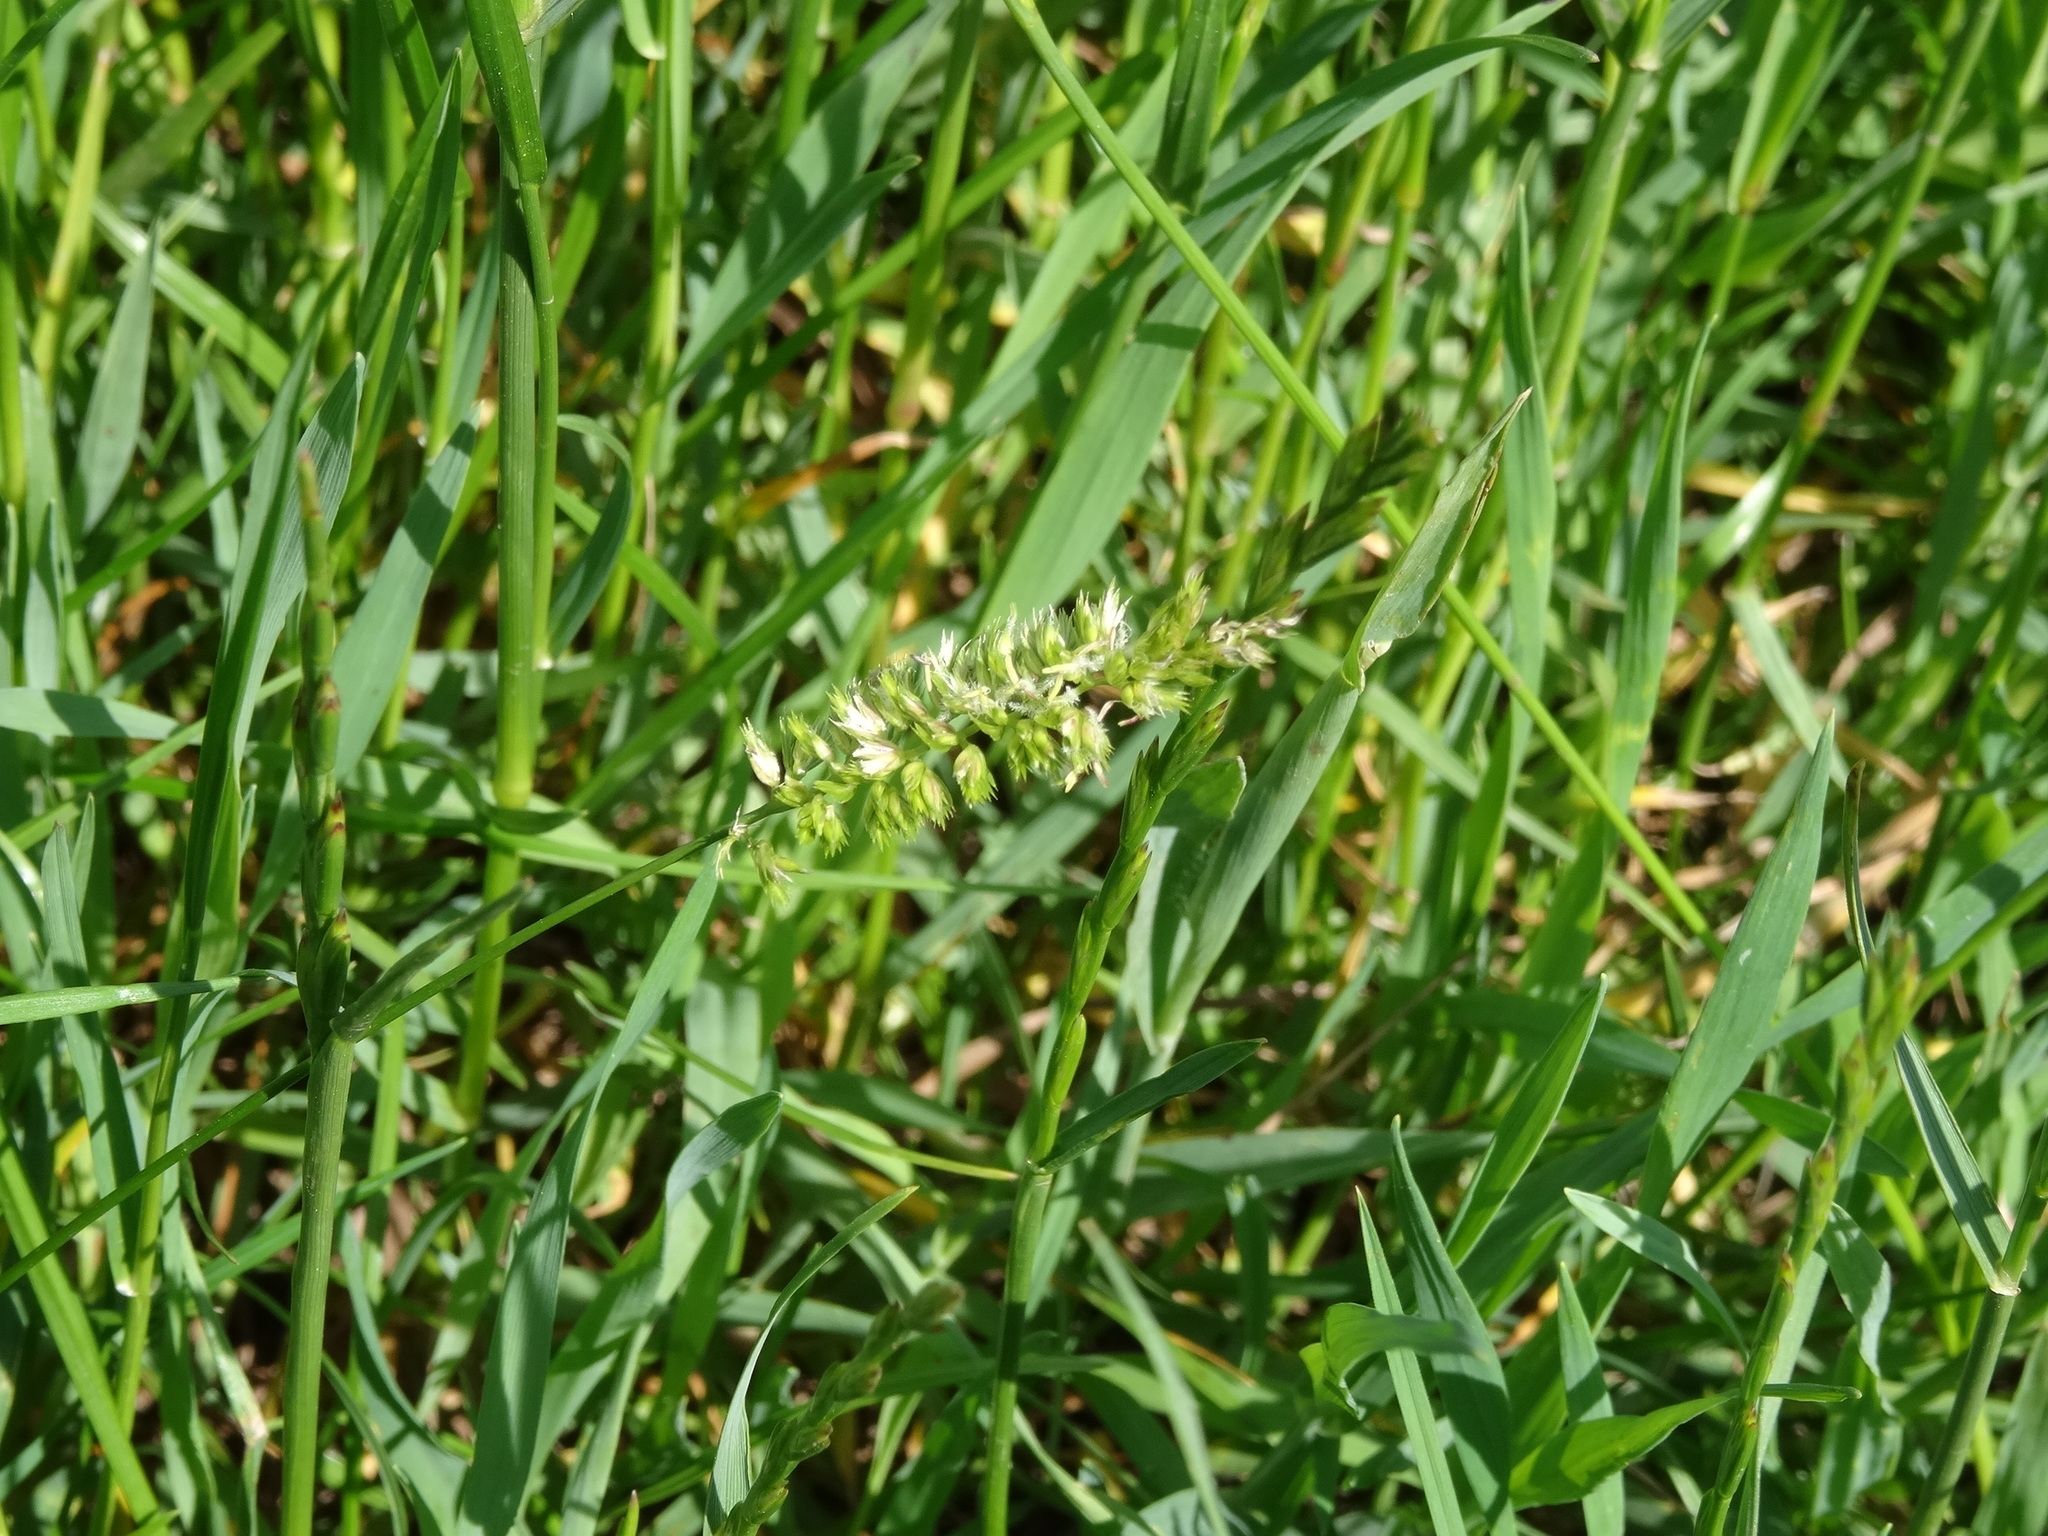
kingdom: Plantae
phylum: Tracheophyta
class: Liliopsida
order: Poales
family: Poaceae
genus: Cynosurus
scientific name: Cynosurus cristatus
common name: Crested dog's-tail
